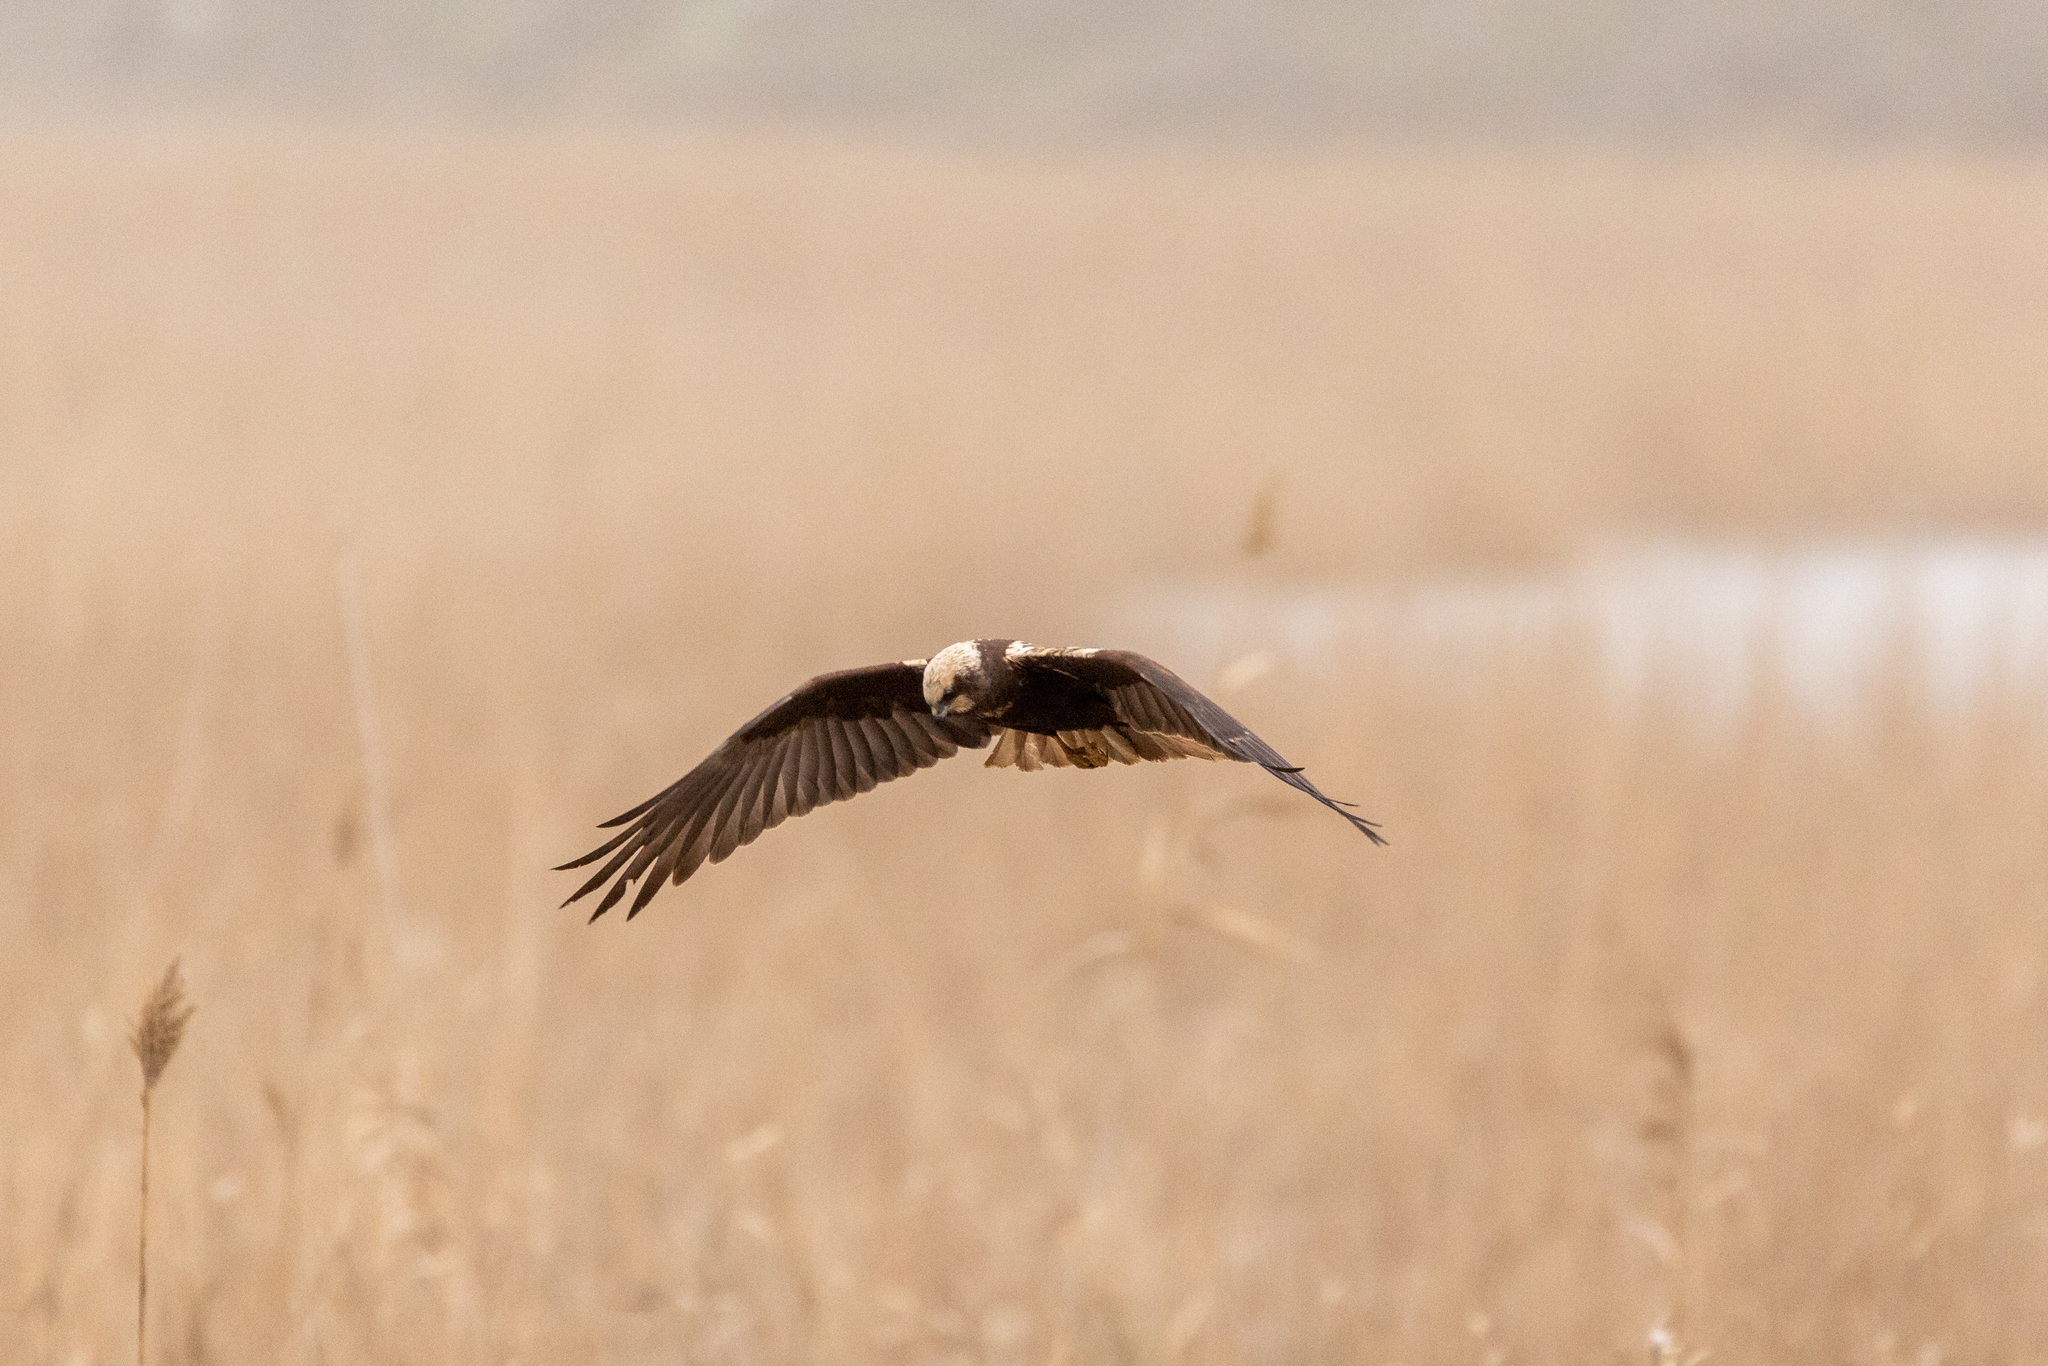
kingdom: Animalia
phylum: Chordata
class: Aves
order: Accipitriformes
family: Accipitridae
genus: Circus
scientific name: Circus aeruginosus
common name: Western marsh harrier
